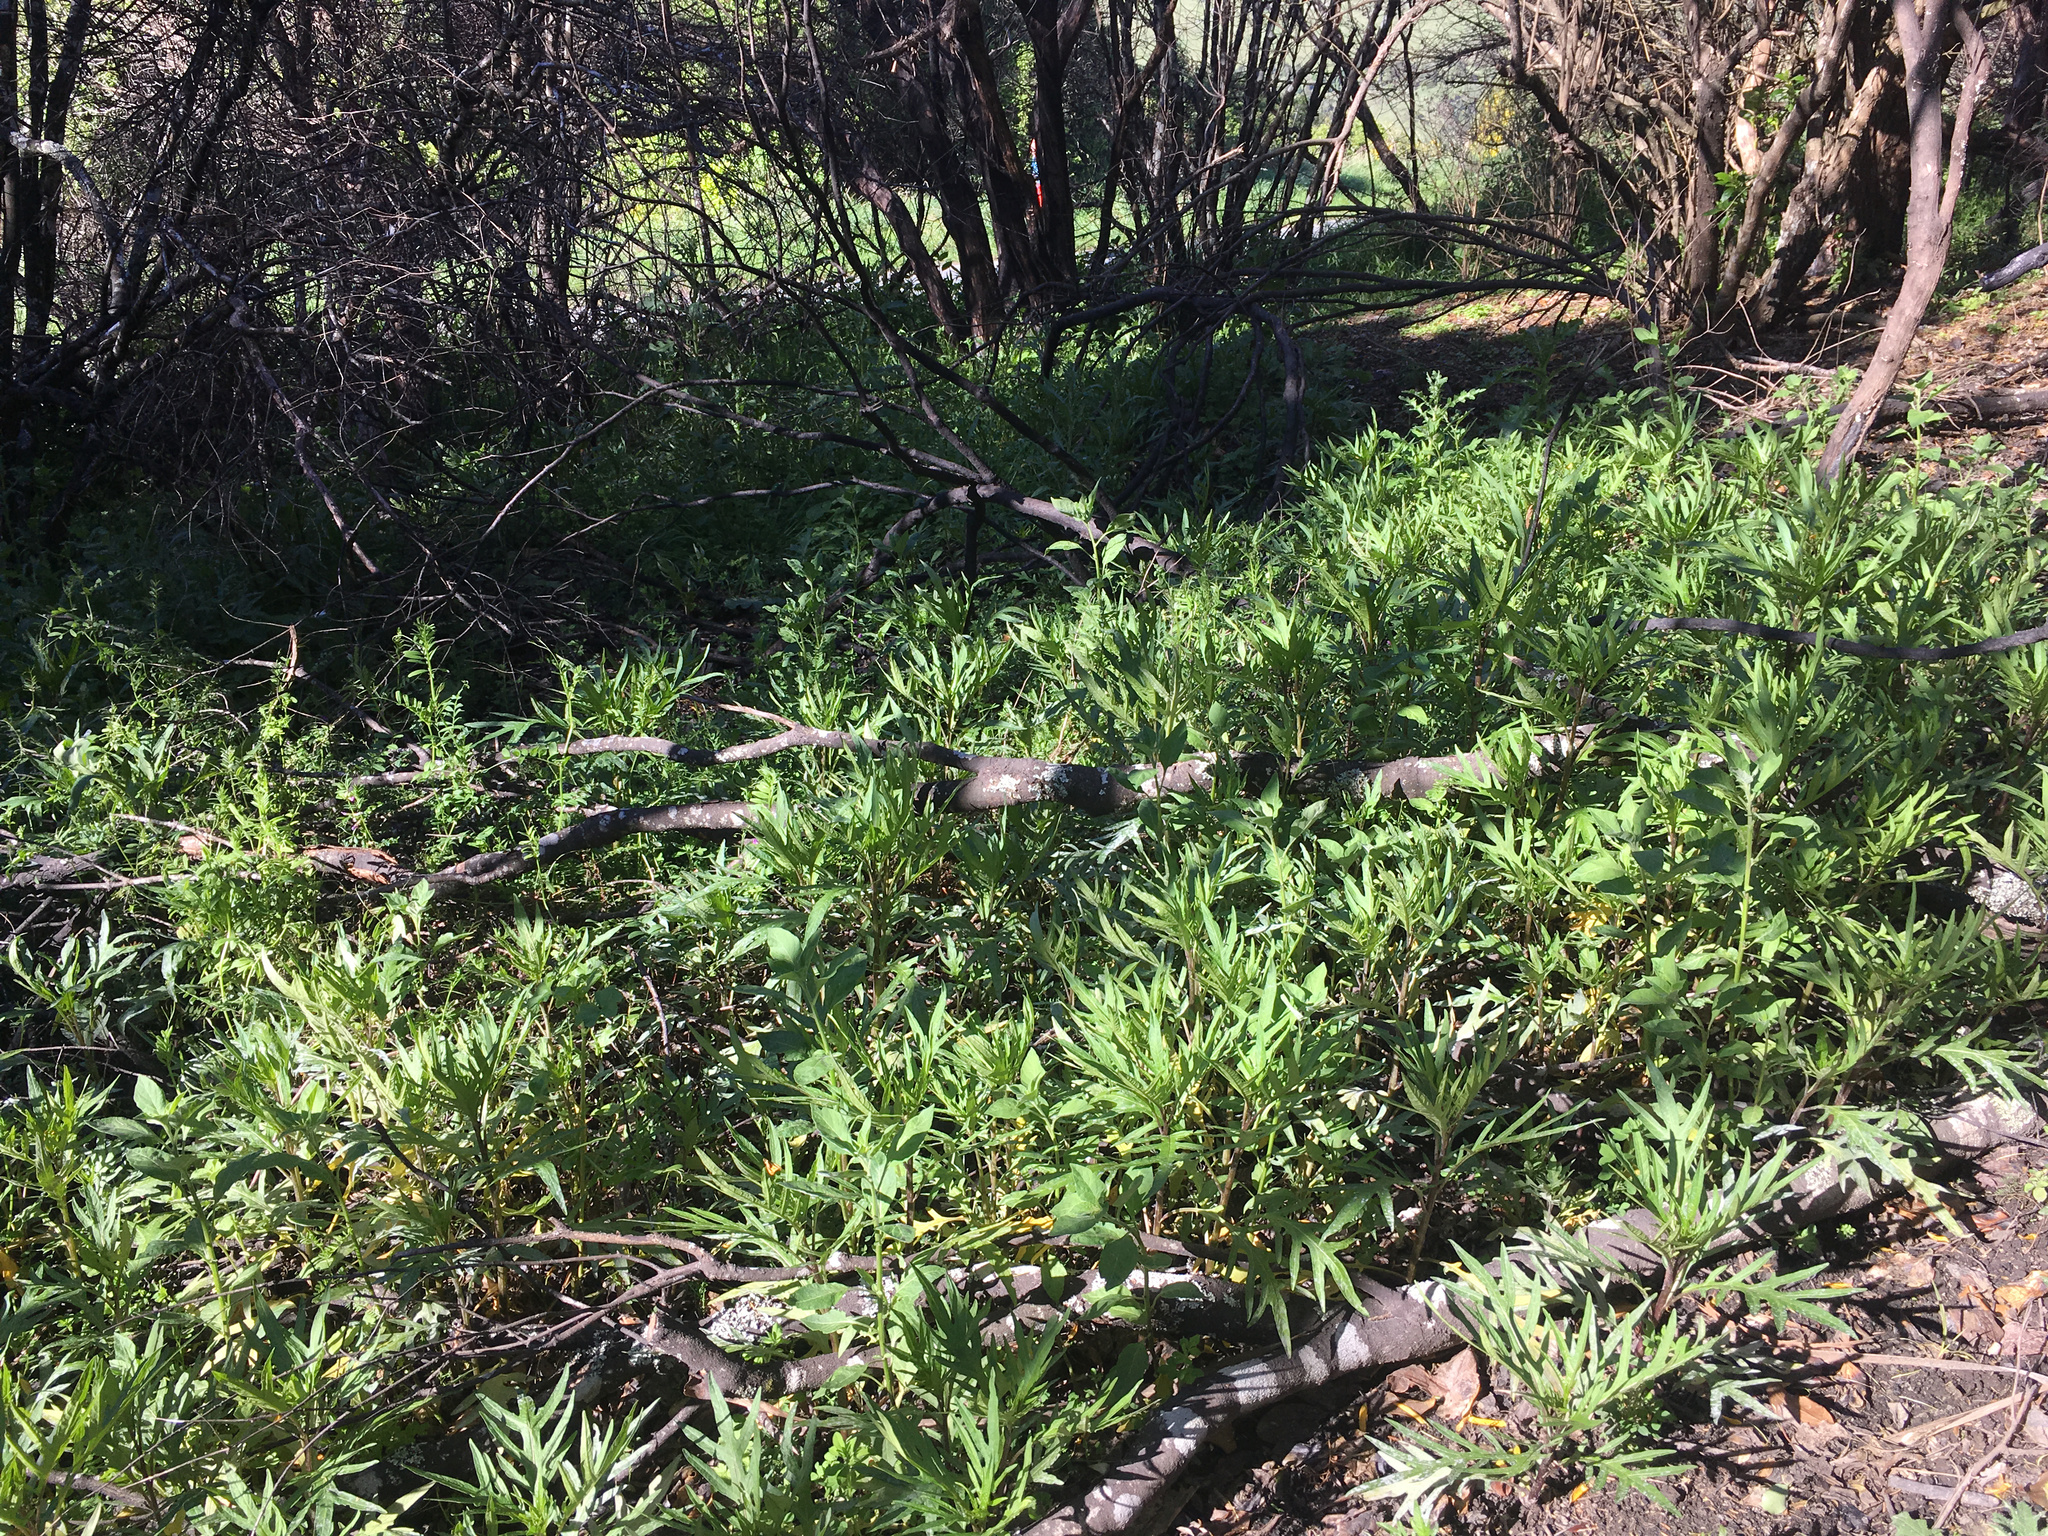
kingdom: Plantae
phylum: Tracheophyta
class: Magnoliopsida
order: Solanales
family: Solanaceae
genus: Solanum
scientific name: Solanum
